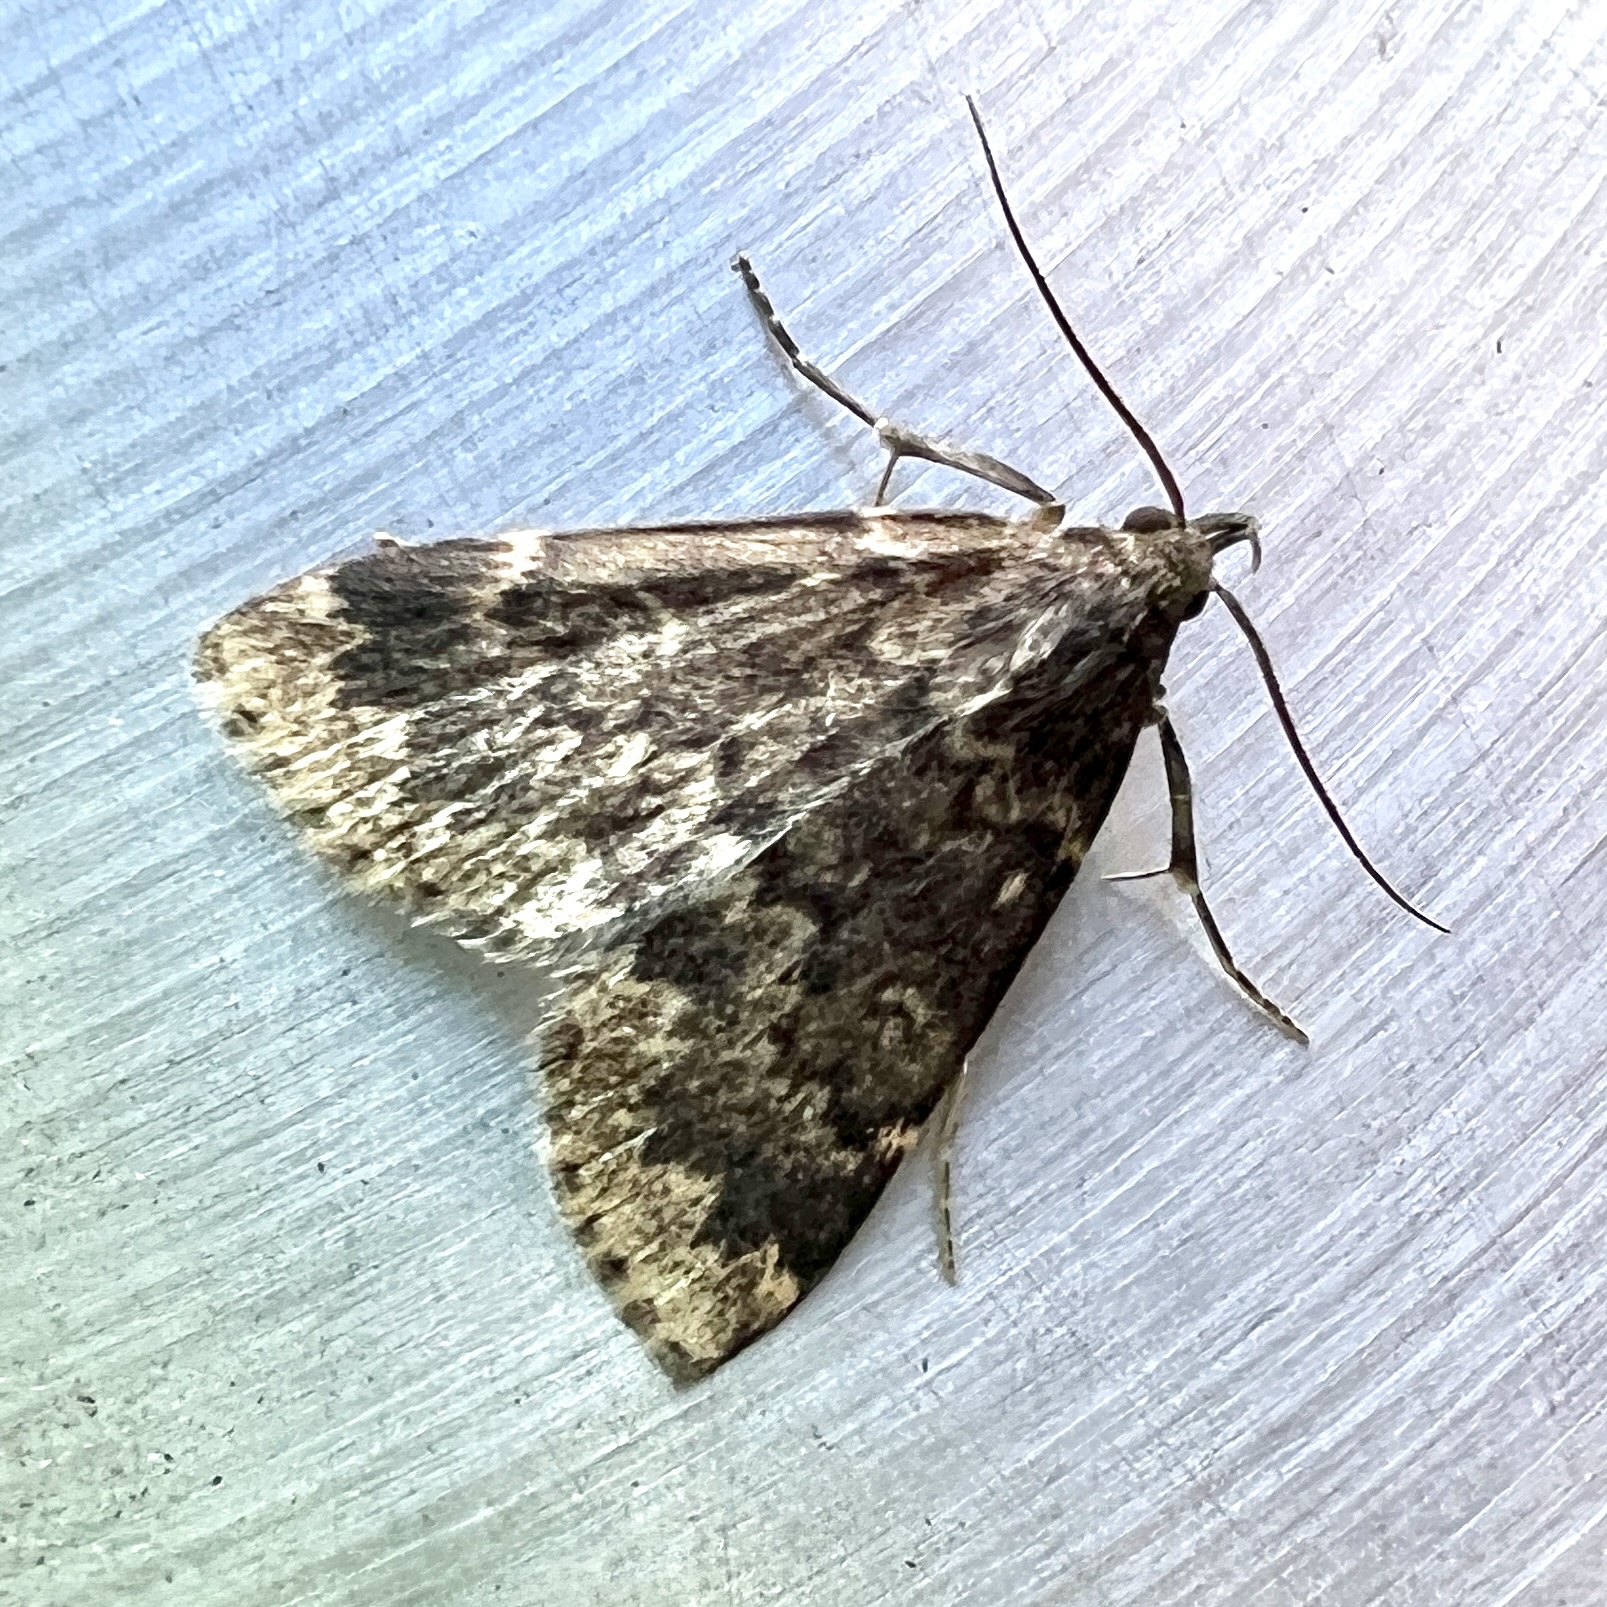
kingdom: Animalia
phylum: Arthropoda
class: Insecta
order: Lepidoptera
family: Erebidae
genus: Idia
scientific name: Idia lubricalis
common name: Twin-striped tabby
